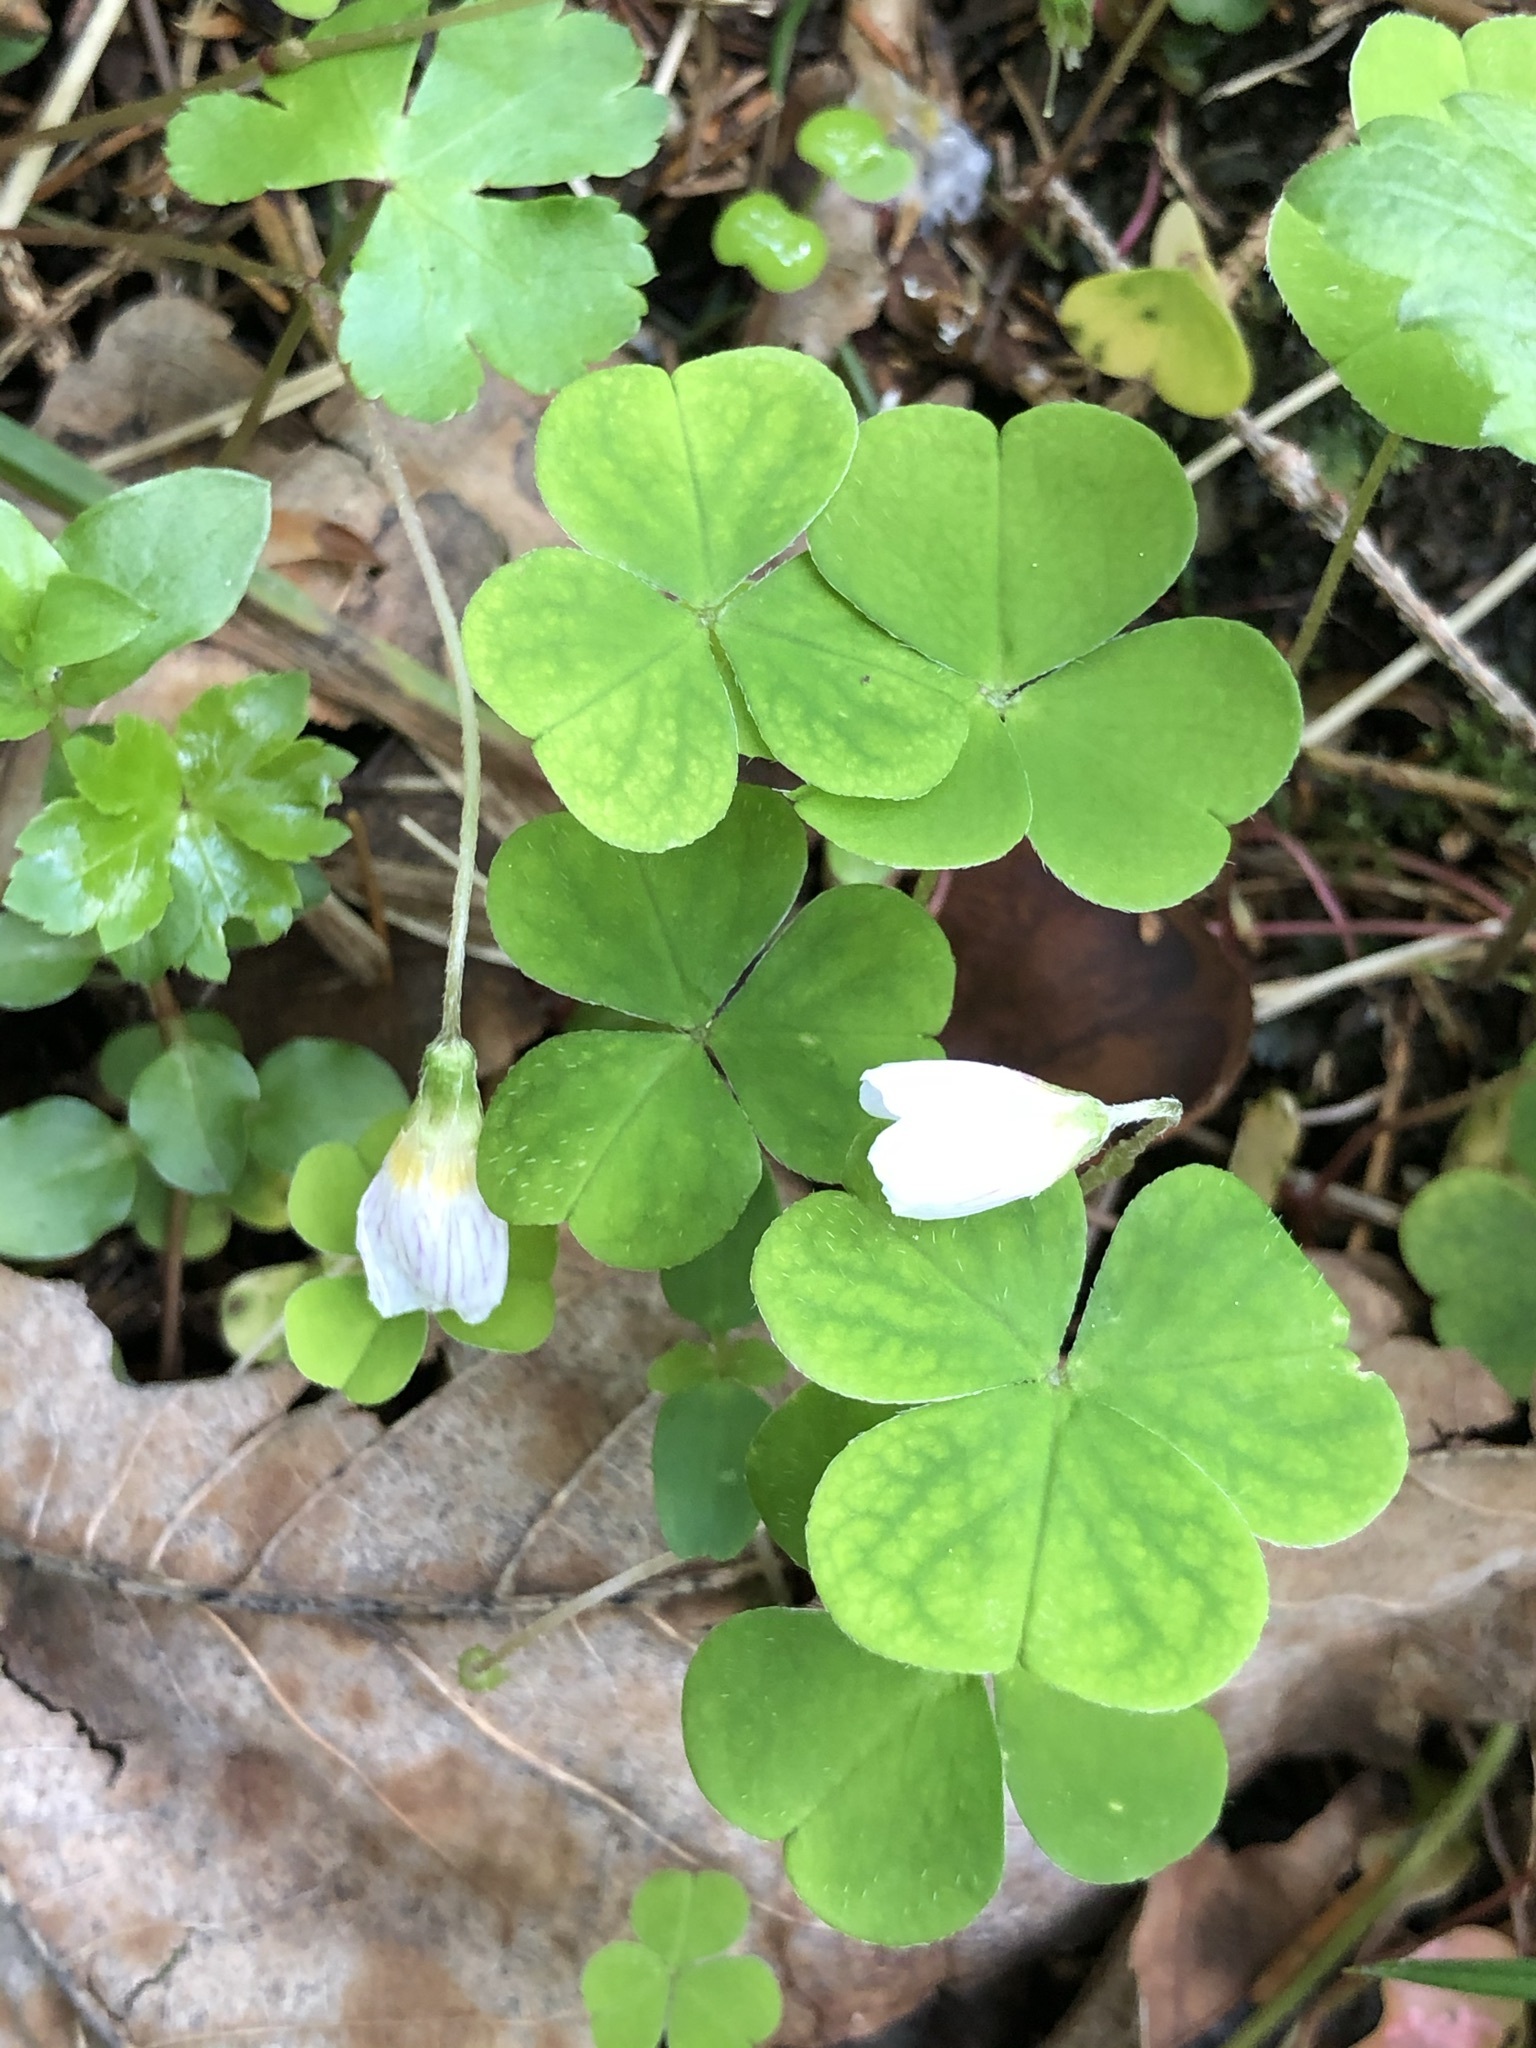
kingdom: Plantae
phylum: Tracheophyta
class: Magnoliopsida
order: Oxalidales
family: Oxalidaceae
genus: Oxalis
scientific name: Oxalis acetosella
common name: Wood-sorrel
